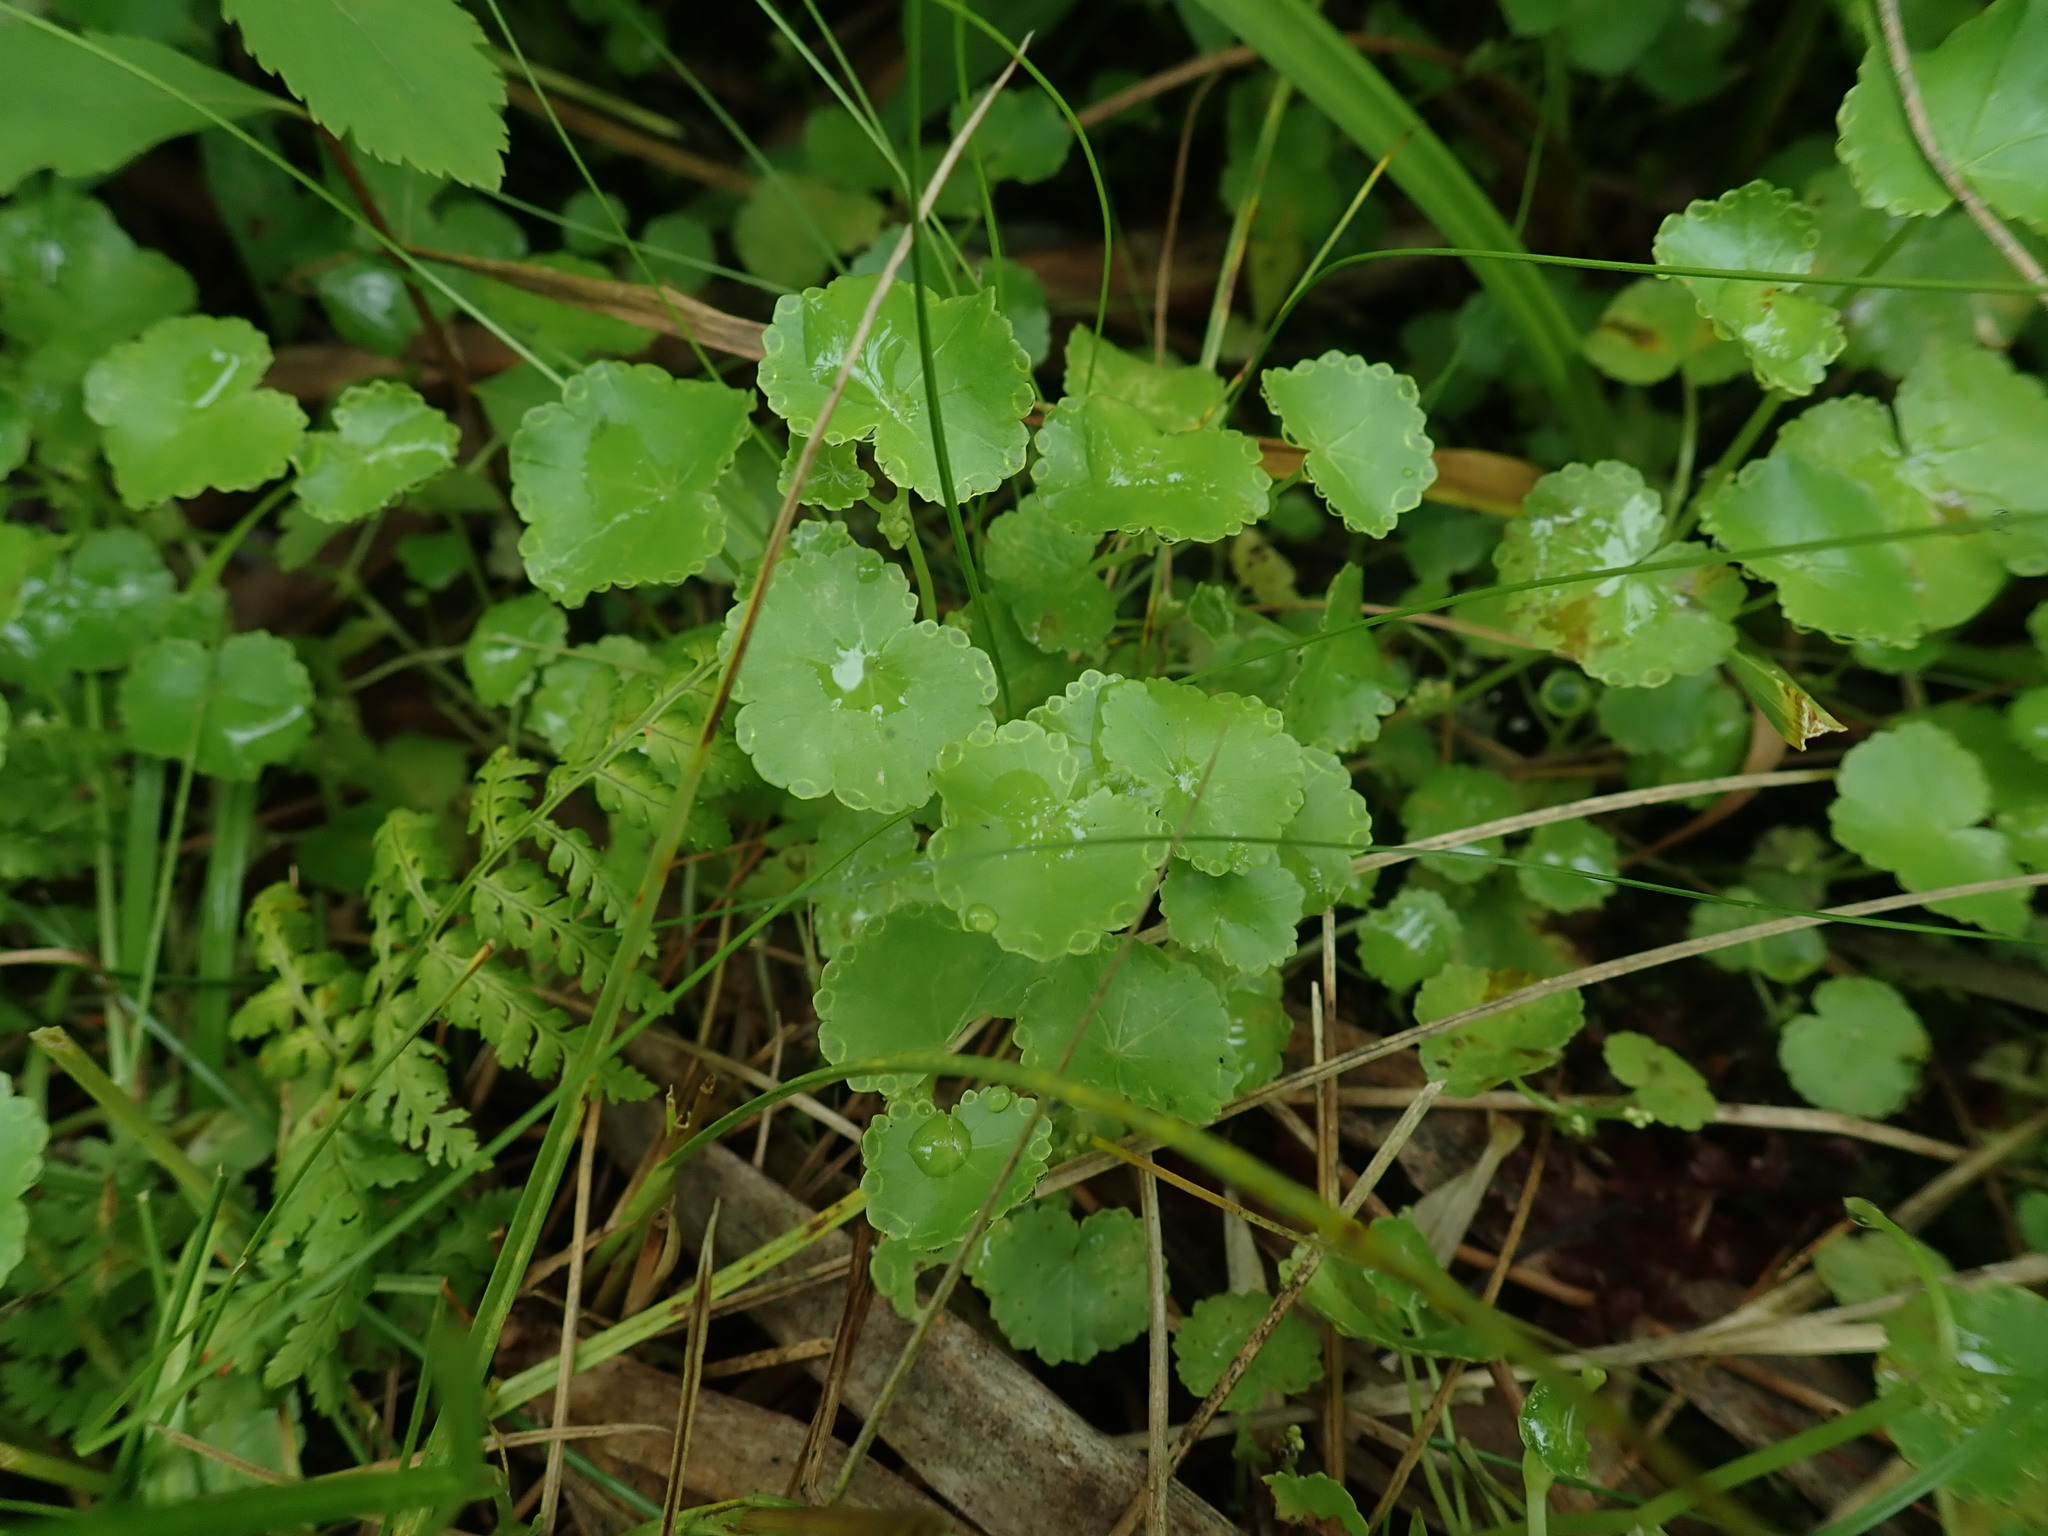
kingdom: Plantae
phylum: Tracheophyta
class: Magnoliopsida
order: Apiales
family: Araliaceae
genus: Hydrocotyle
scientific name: Hydrocotyle americana
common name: American water-pennywort
